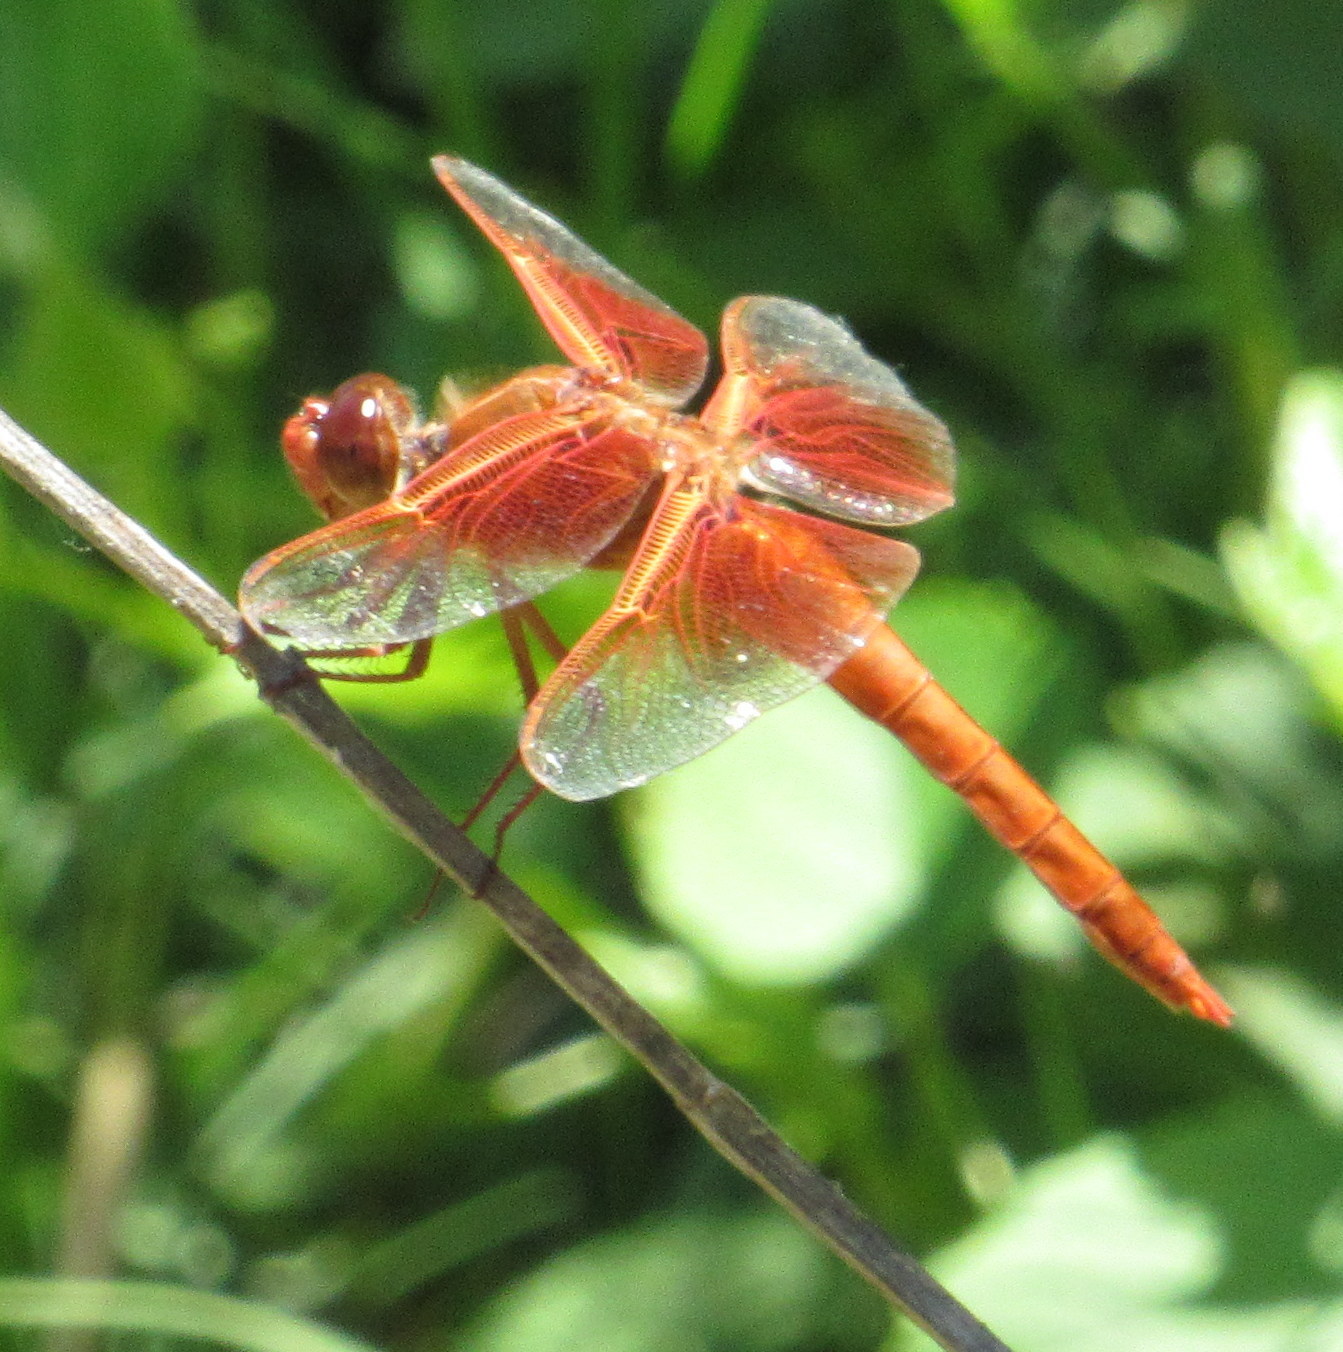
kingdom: Animalia
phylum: Arthropoda
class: Insecta
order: Odonata
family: Libellulidae
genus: Libellula
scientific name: Libellula saturata
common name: Flame skimmer
